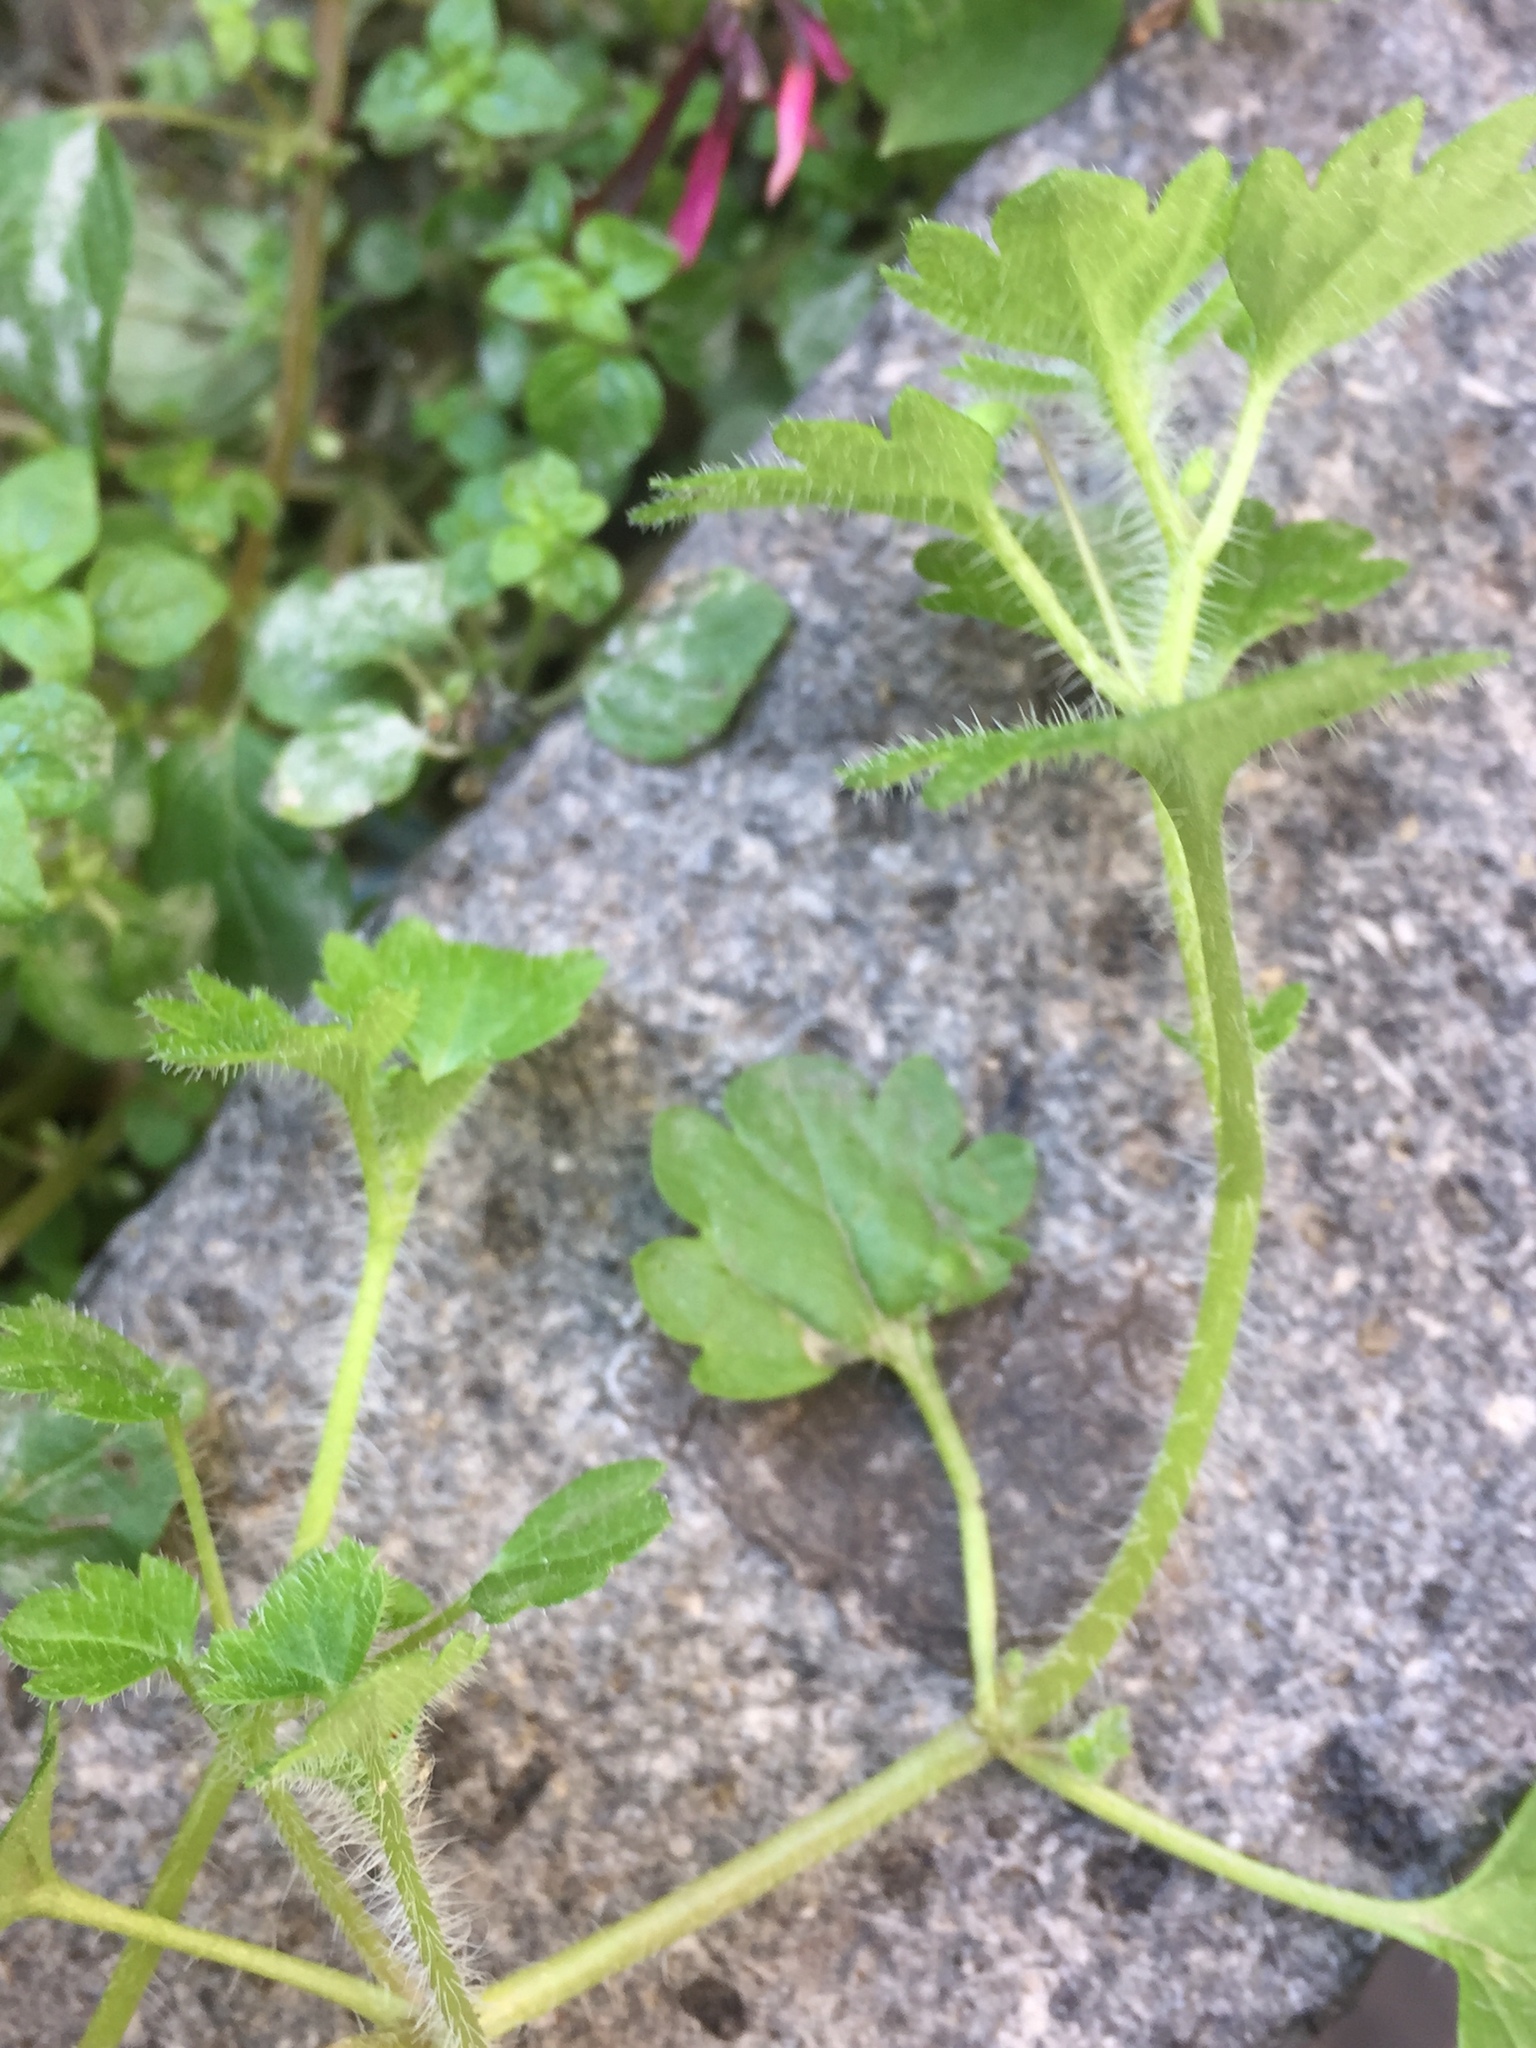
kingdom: Plantae
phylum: Tracheophyta
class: Magnoliopsida
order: Lamiales
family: Plantaginaceae
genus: Veronica
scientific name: Veronica cymbalaria
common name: Pale speedwell
